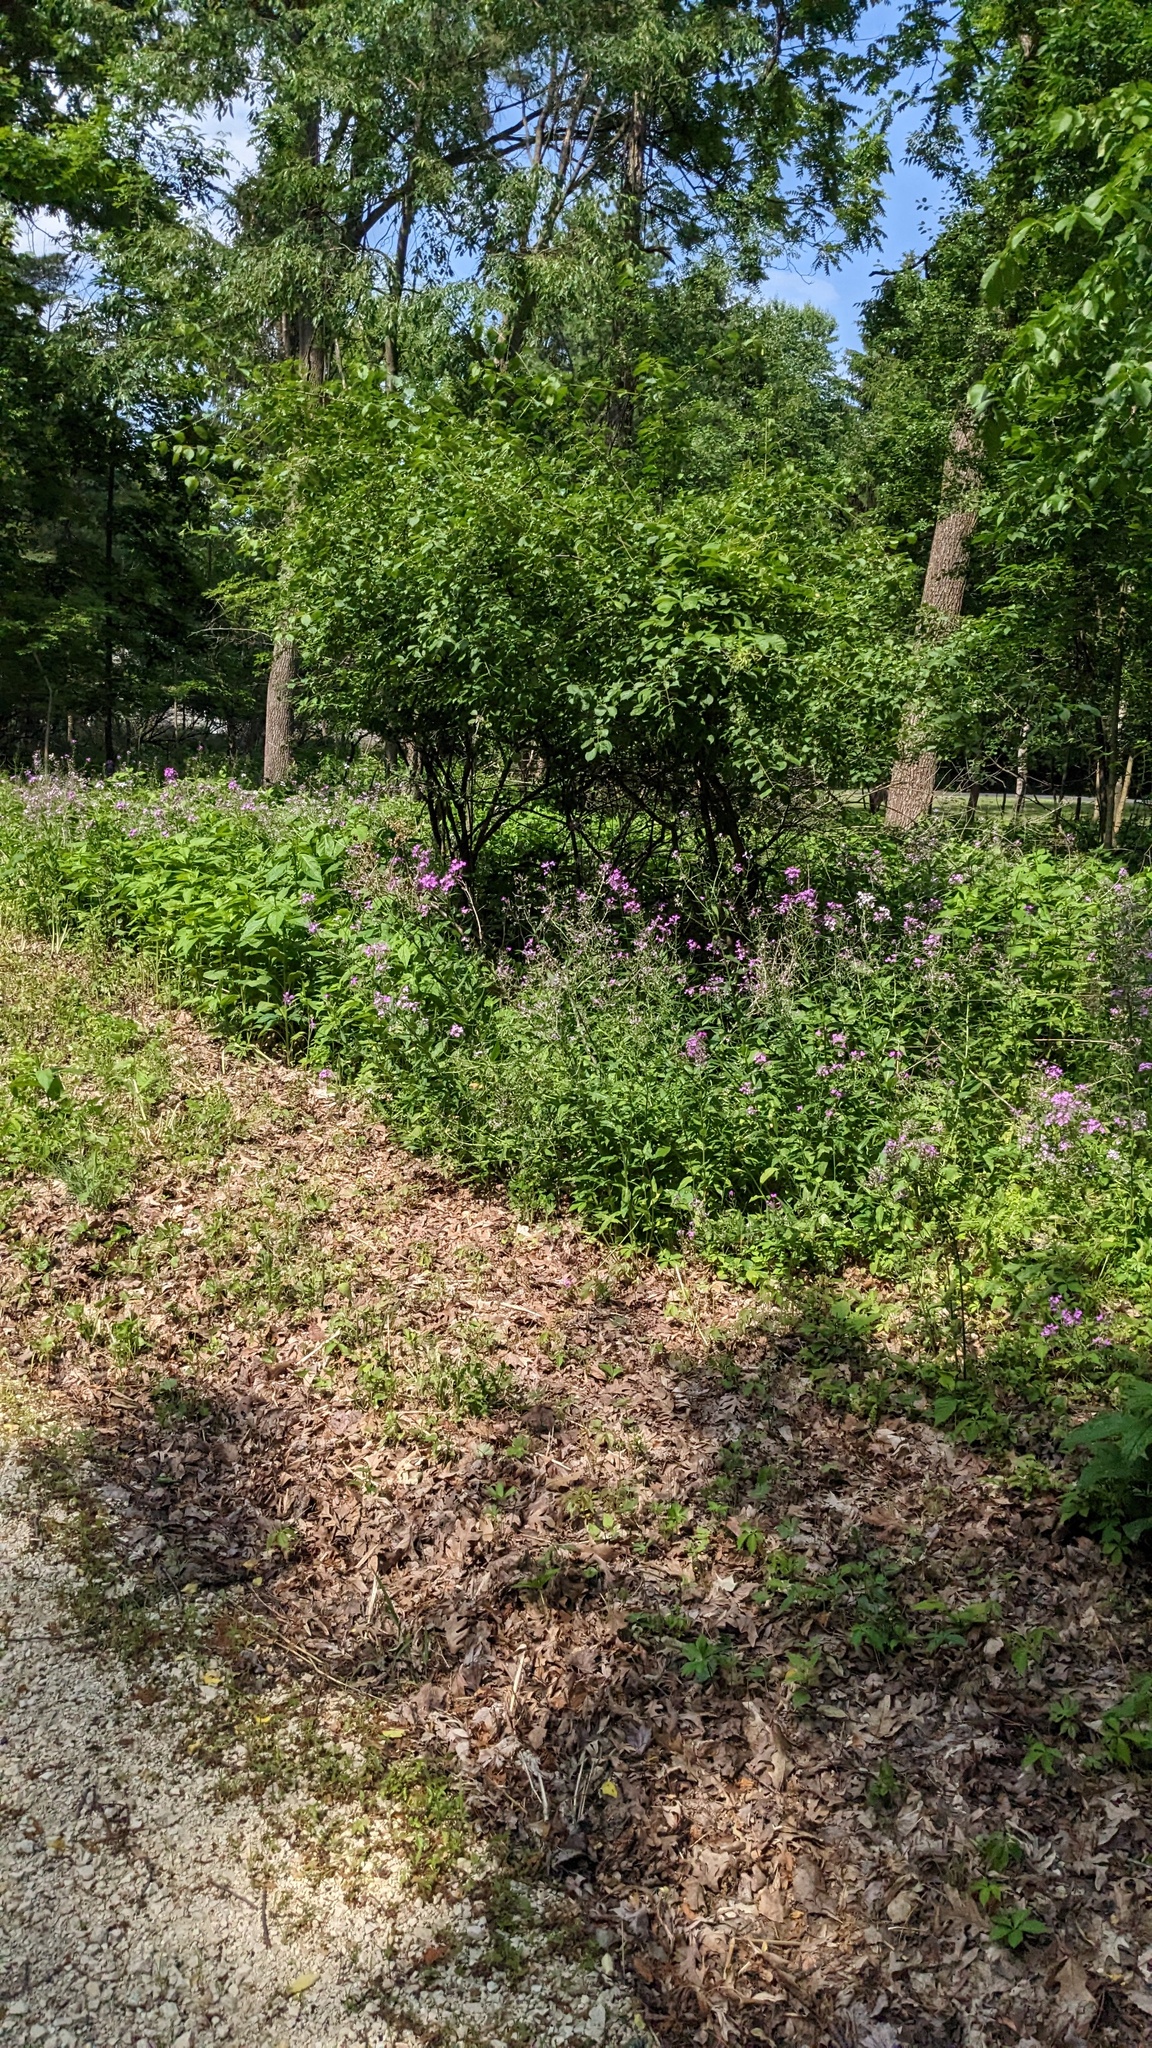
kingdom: Plantae
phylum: Tracheophyta
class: Magnoliopsida
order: Brassicales
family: Brassicaceae
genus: Hesperis
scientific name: Hesperis matronalis
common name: Dame's-violet
